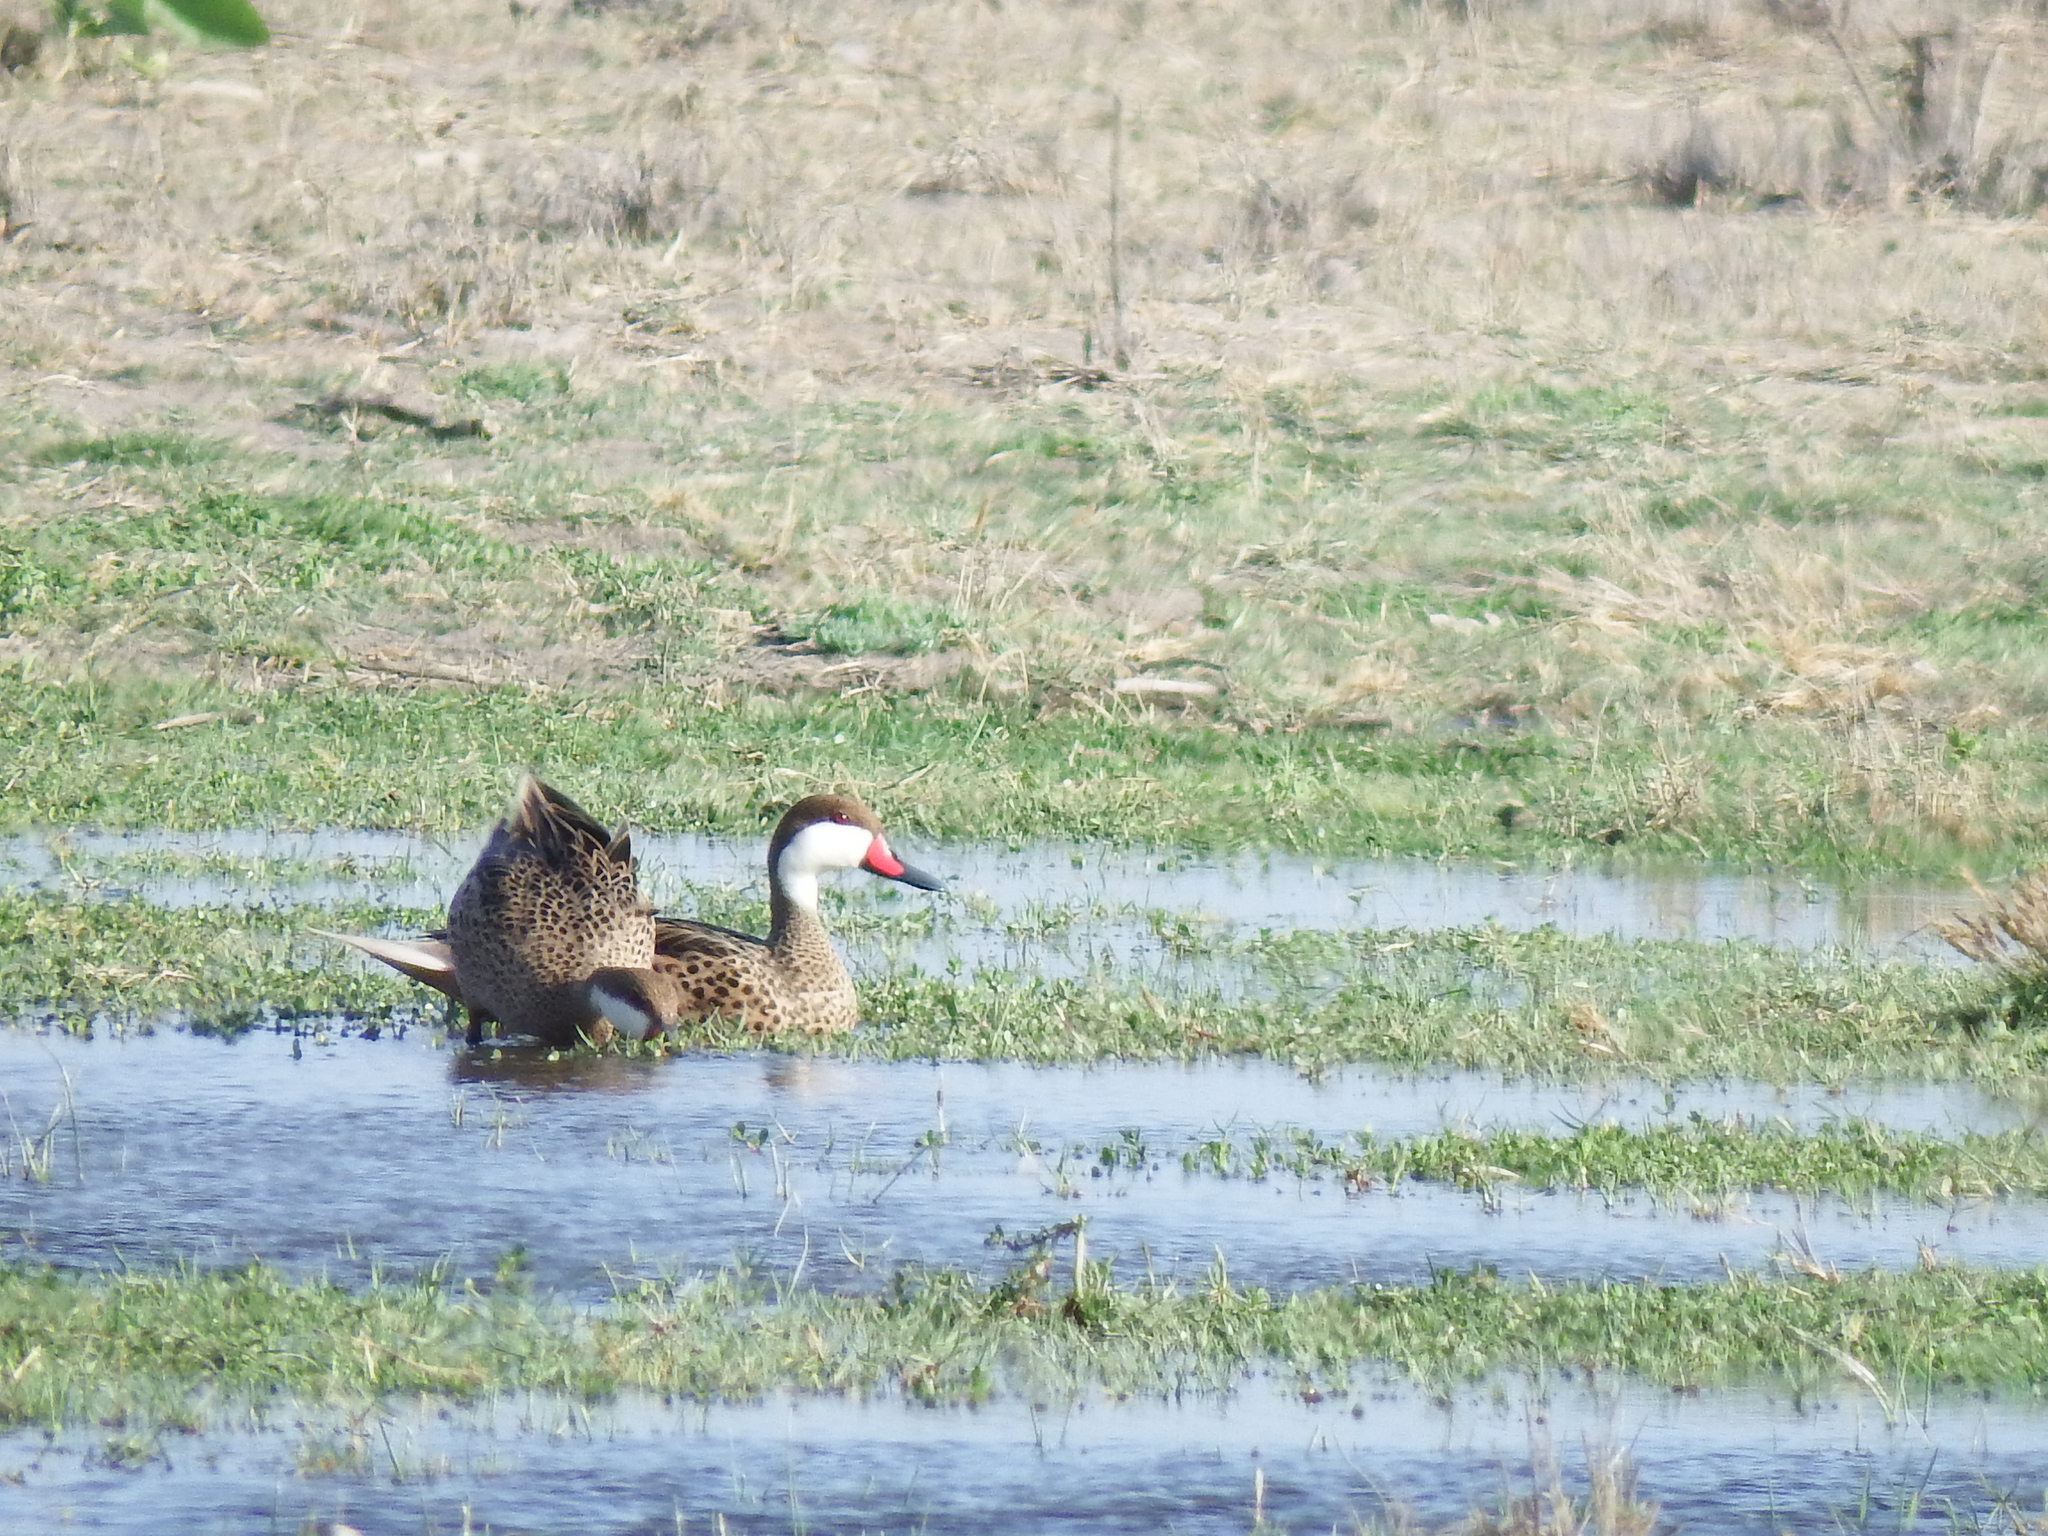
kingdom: Animalia
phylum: Chordata
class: Aves
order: Anseriformes
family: Anatidae
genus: Anas
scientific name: Anas bahamensis
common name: White-cheeked pintail
